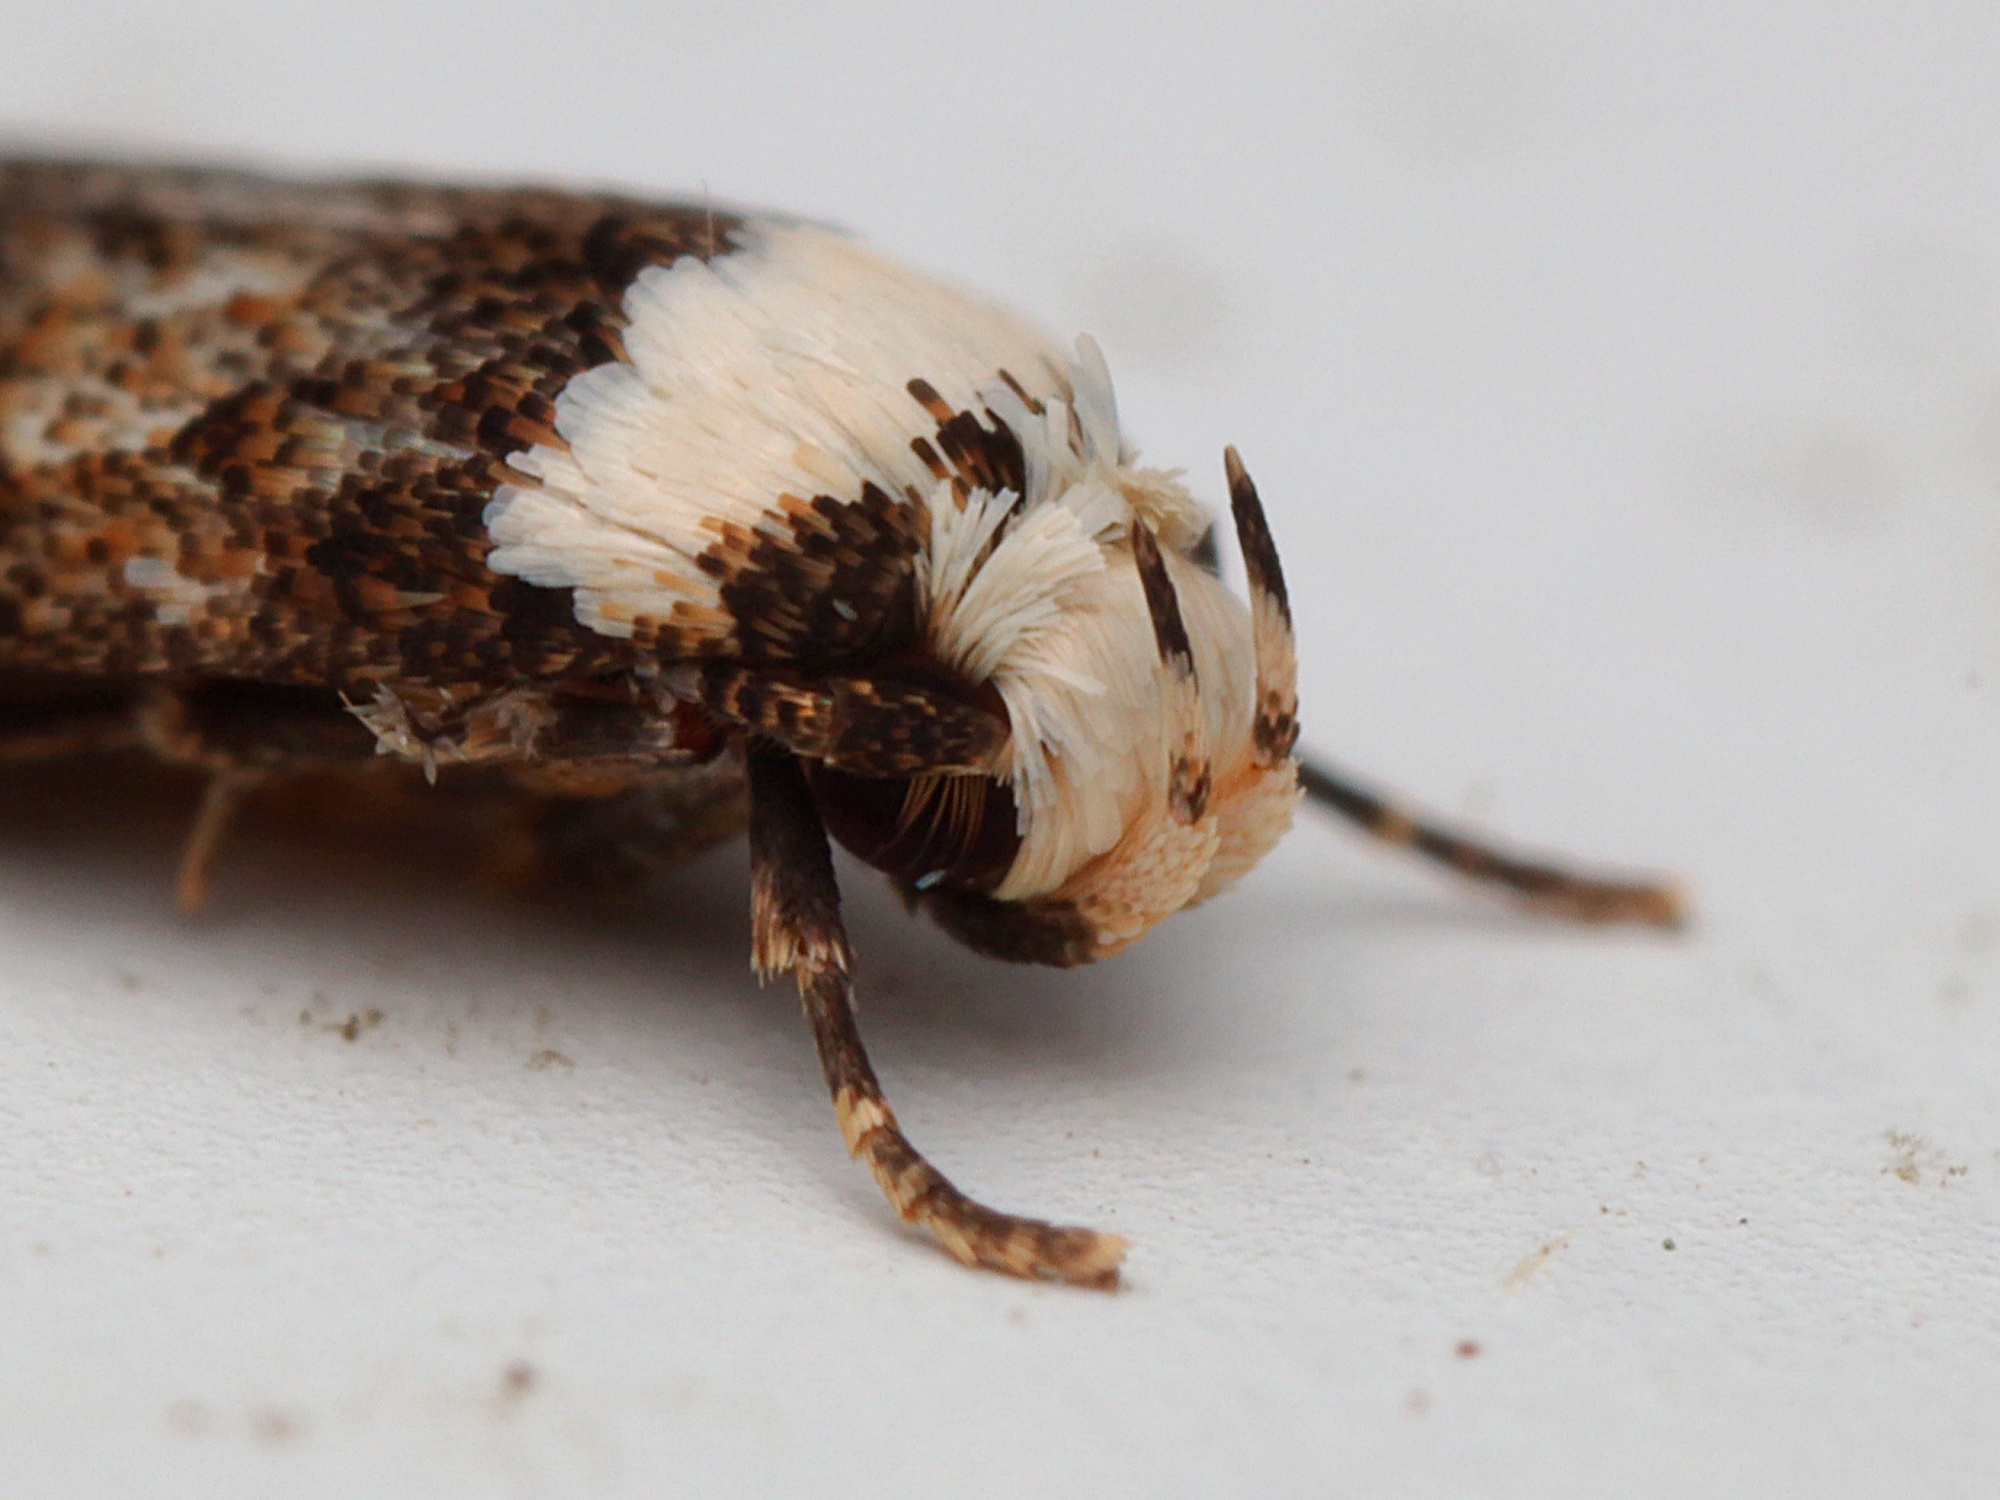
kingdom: Animalia
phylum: Arthropoda
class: Insecta
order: Lepidoptera
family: Oecophoridae
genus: Endrosis
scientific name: Endrosis sarcitrella
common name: White-shouldered house moth
